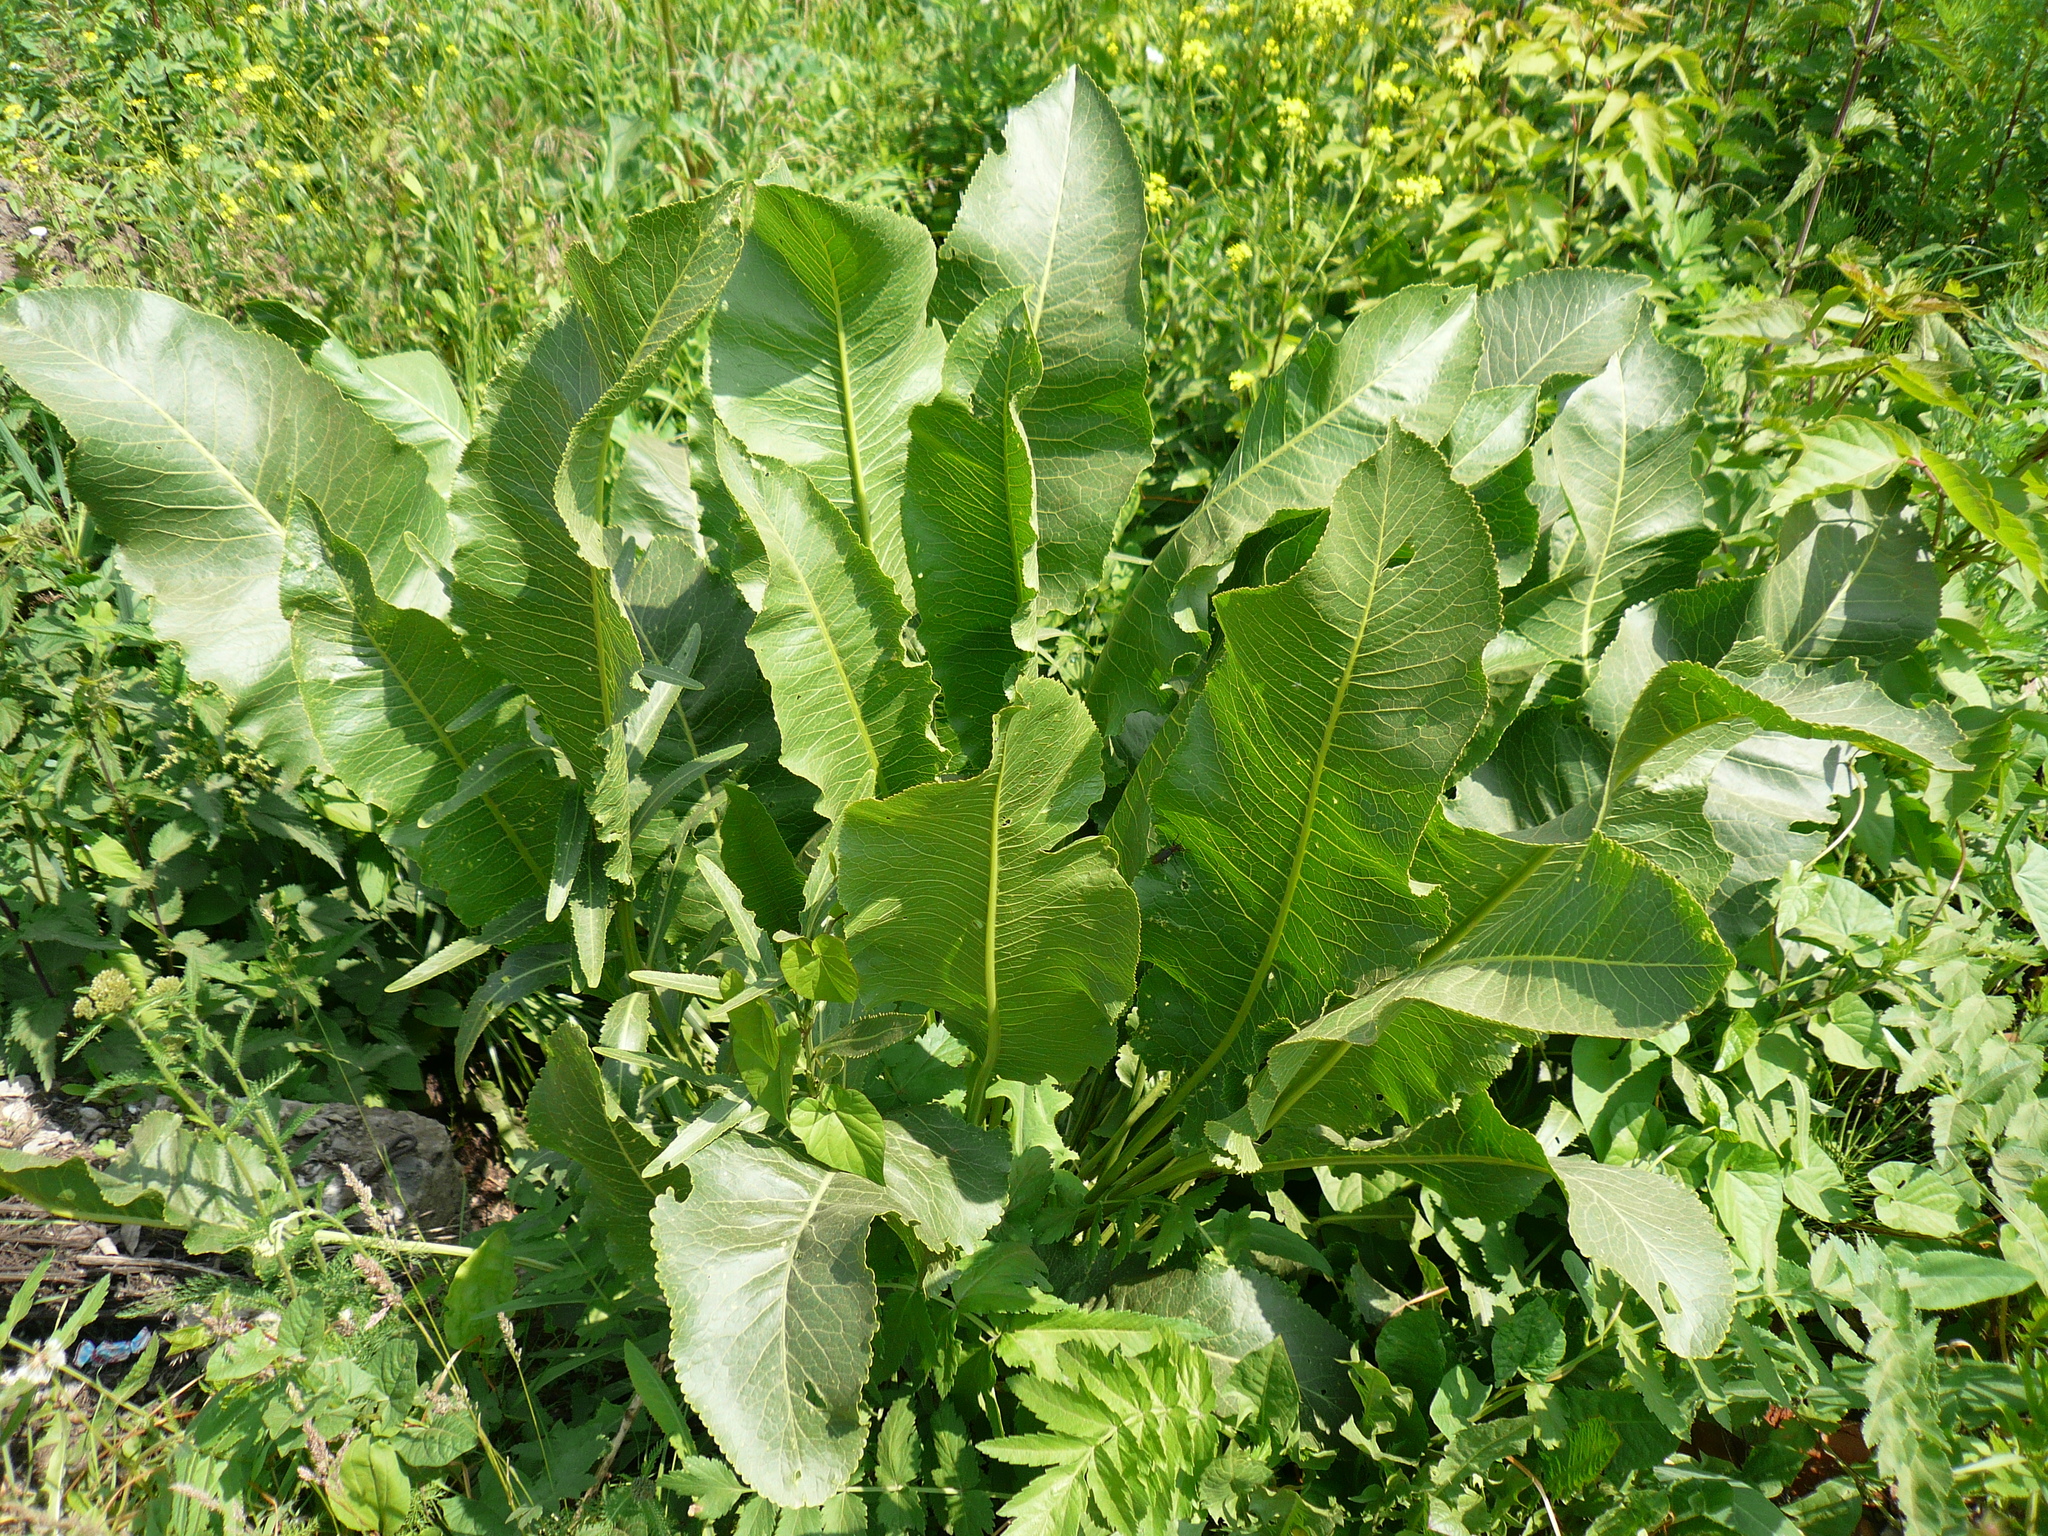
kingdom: Plantae
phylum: Tracheophyta
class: Magnoliopsida
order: Brassicales
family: Brassicaceae
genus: Armoracia
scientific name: Armoracia rusticana
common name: Horseradish
